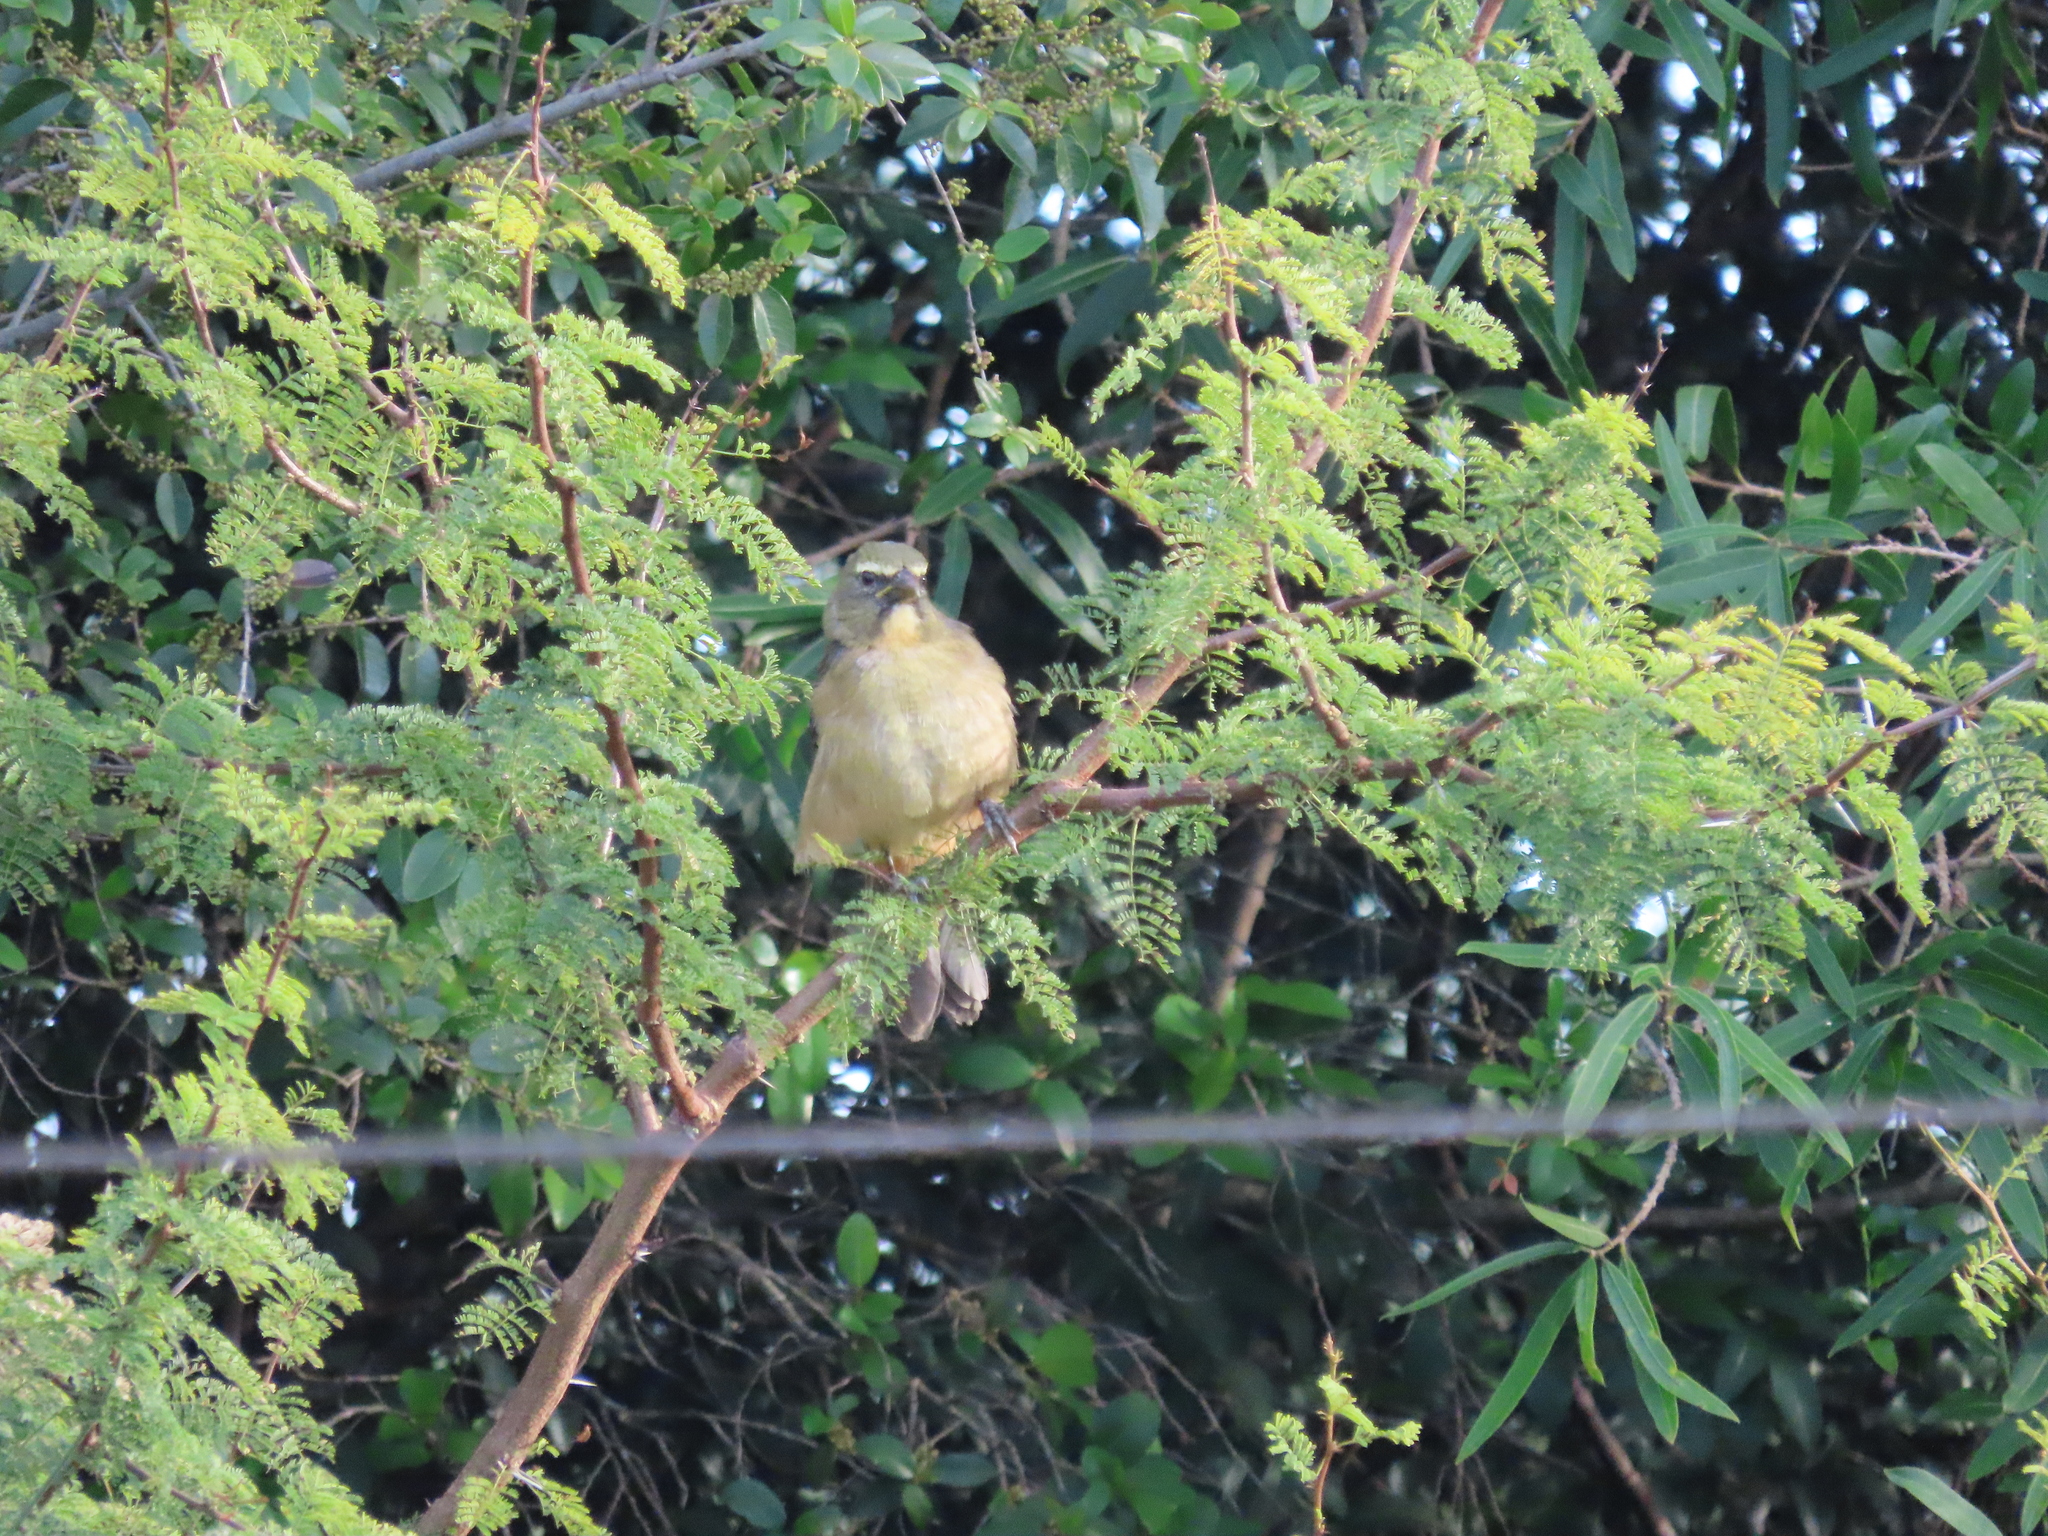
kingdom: Animalia
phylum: Chordata
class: Aves
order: Passeriformes
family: Thraupidae
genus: Saltator
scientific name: Saltator coerulescens
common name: Grayish saltator
